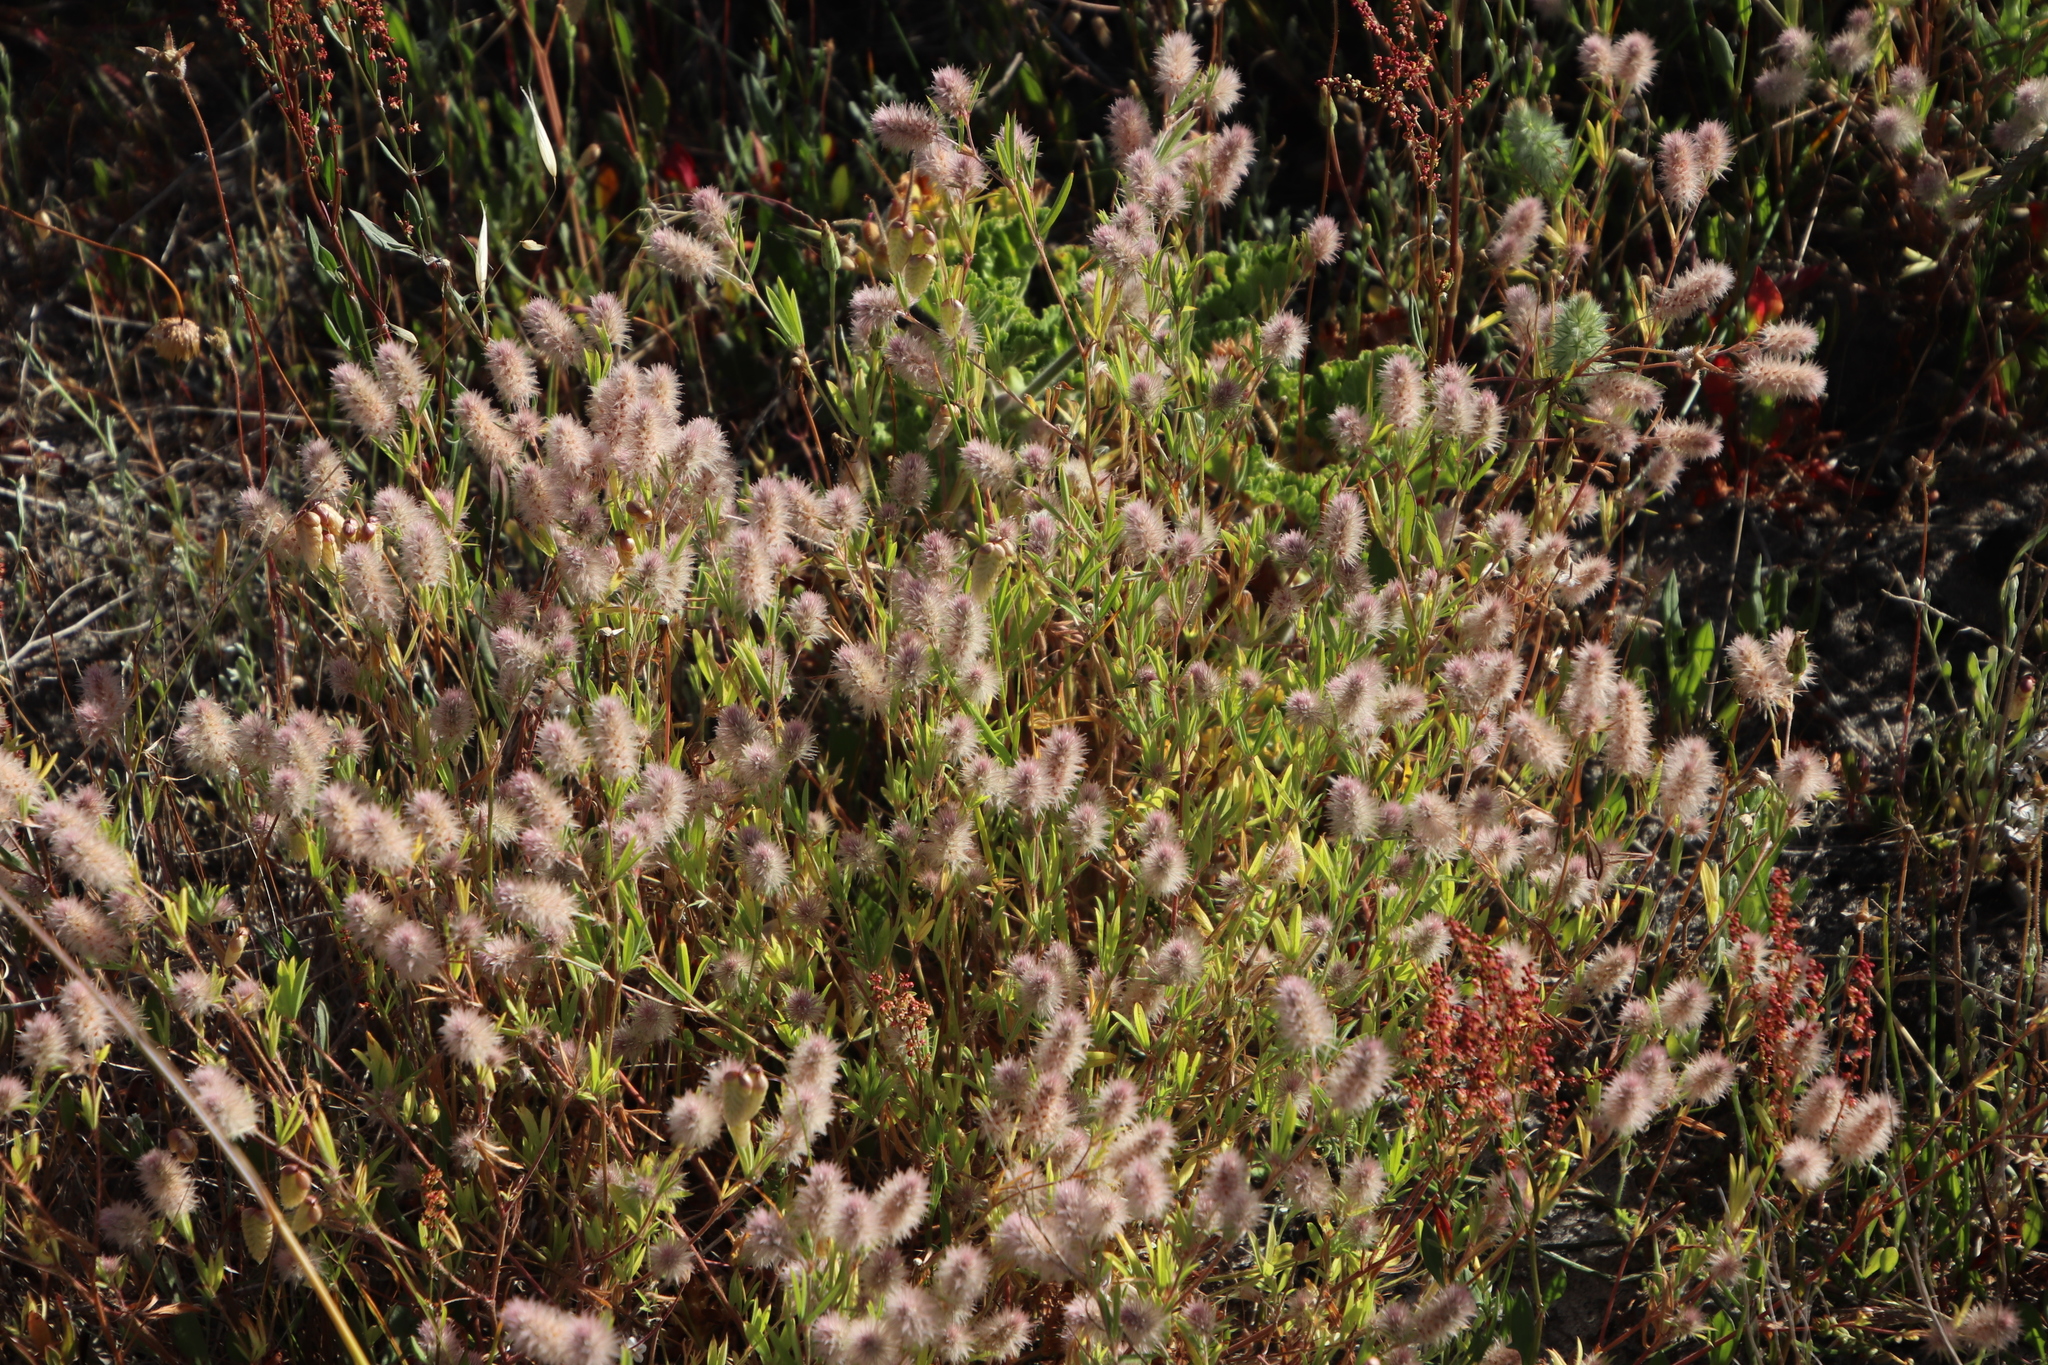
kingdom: Plantae
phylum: Tracheophyta
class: Magnoliopsida
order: Fabales
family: Fabaceae
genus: Trifolium
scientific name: Trifolium arvense
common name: Hare's-foot clover
